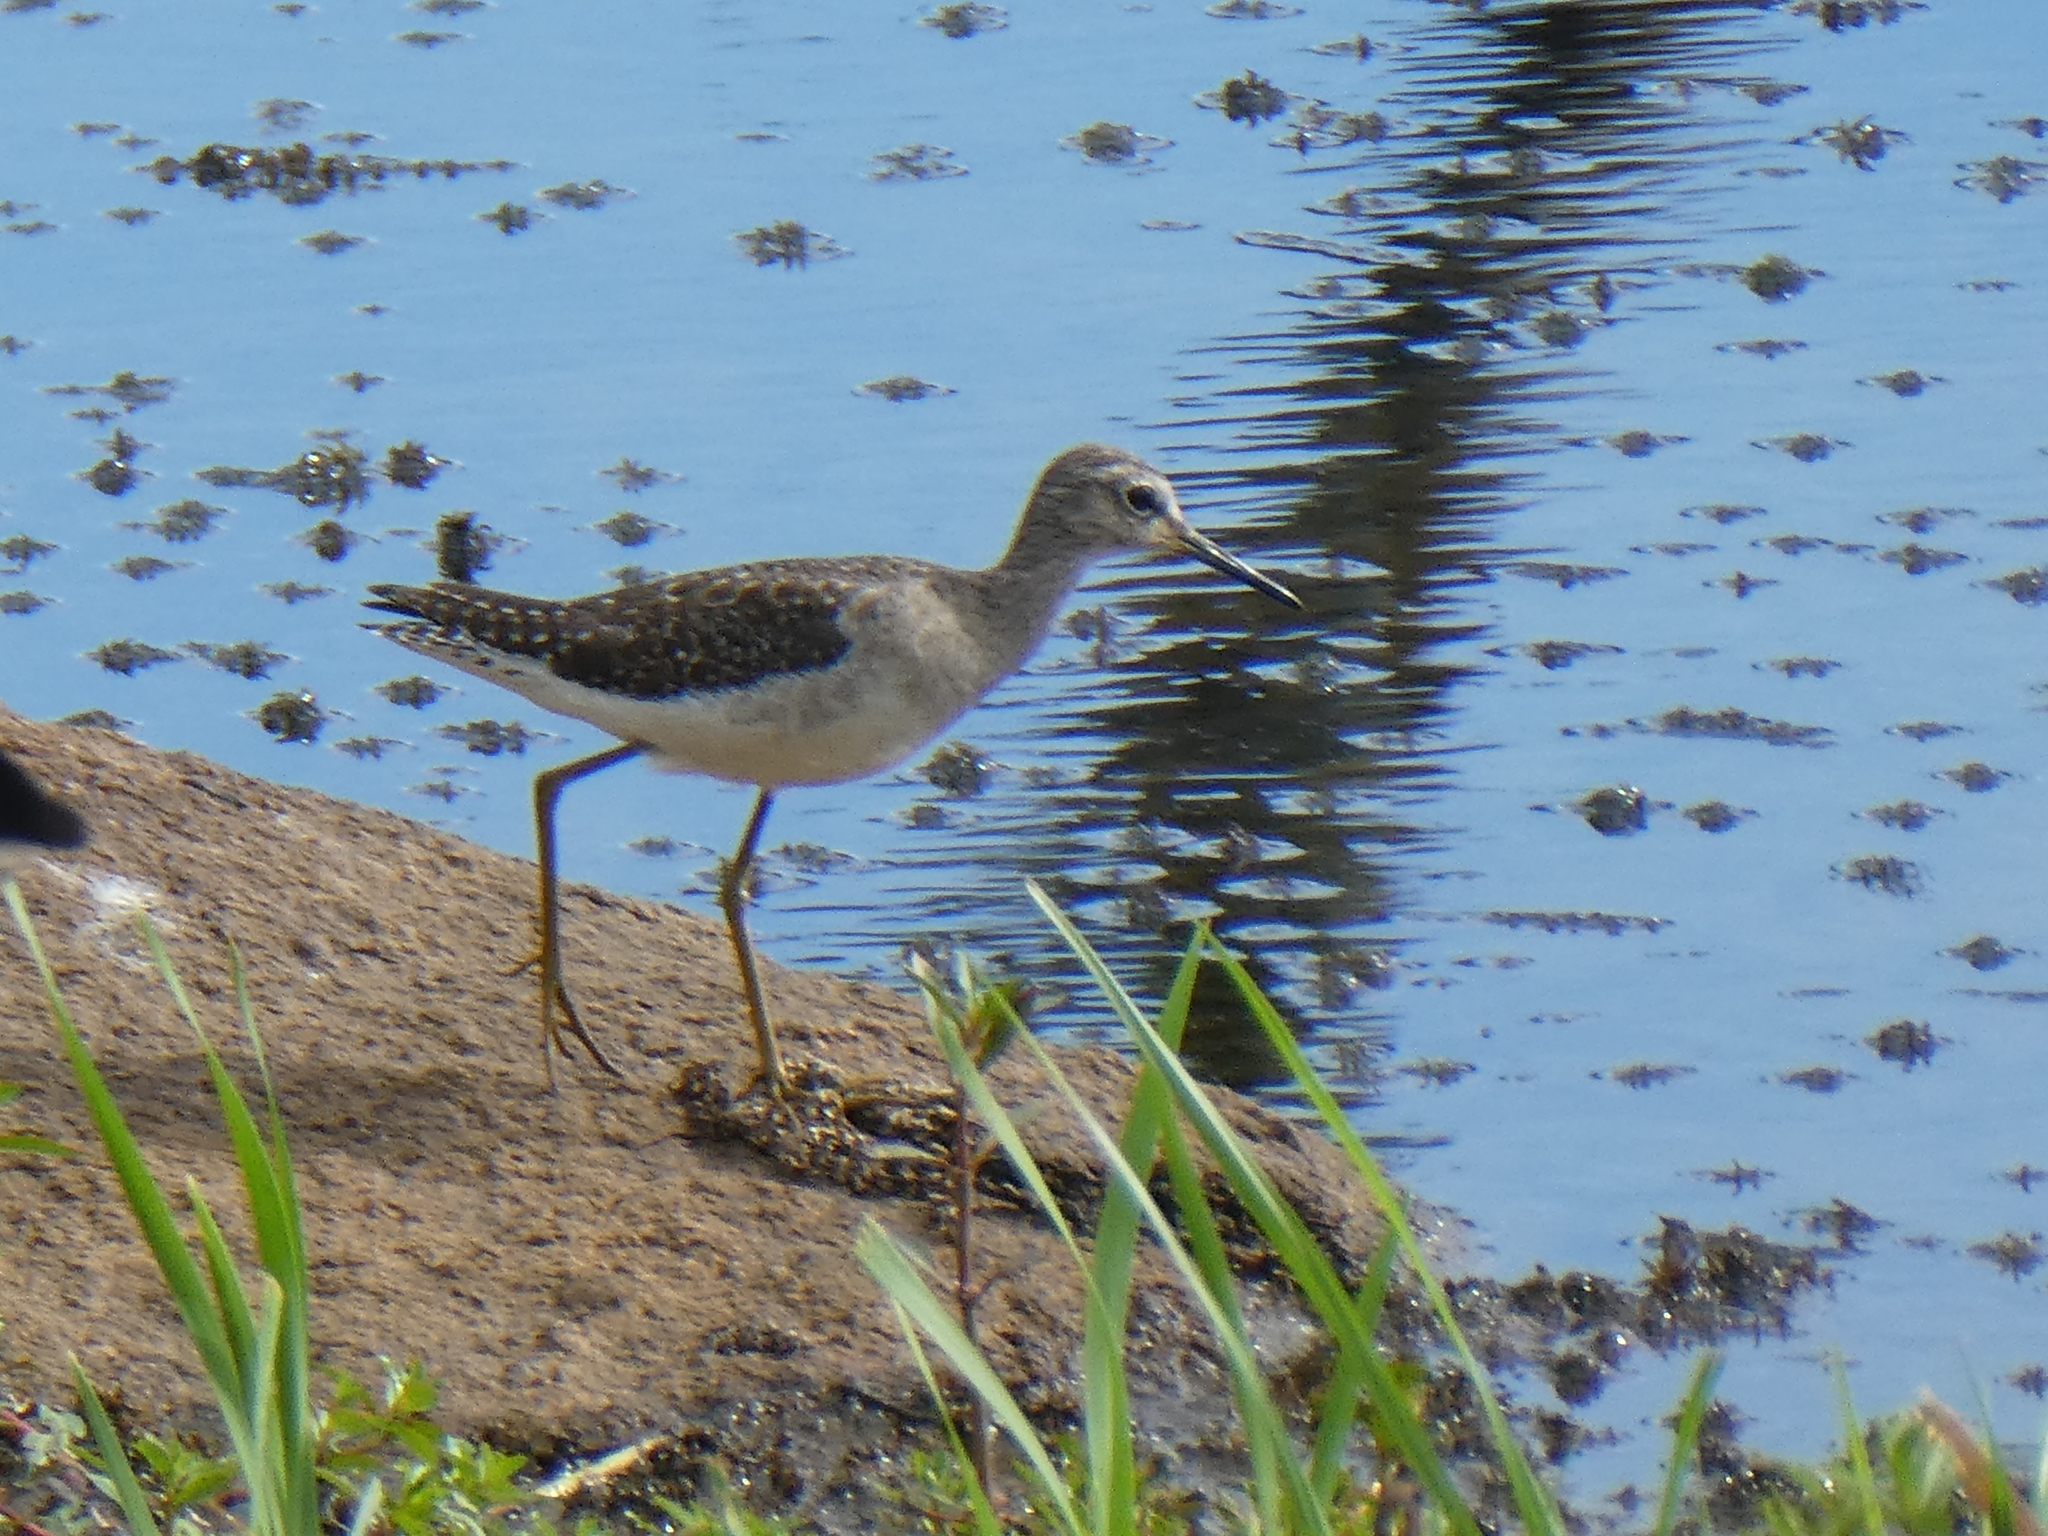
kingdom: Animalia
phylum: Chordata
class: Aves
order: Charadriiformes
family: Scolopacidae
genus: Tringa
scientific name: Tringa glareola
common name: Wood sandpiper
